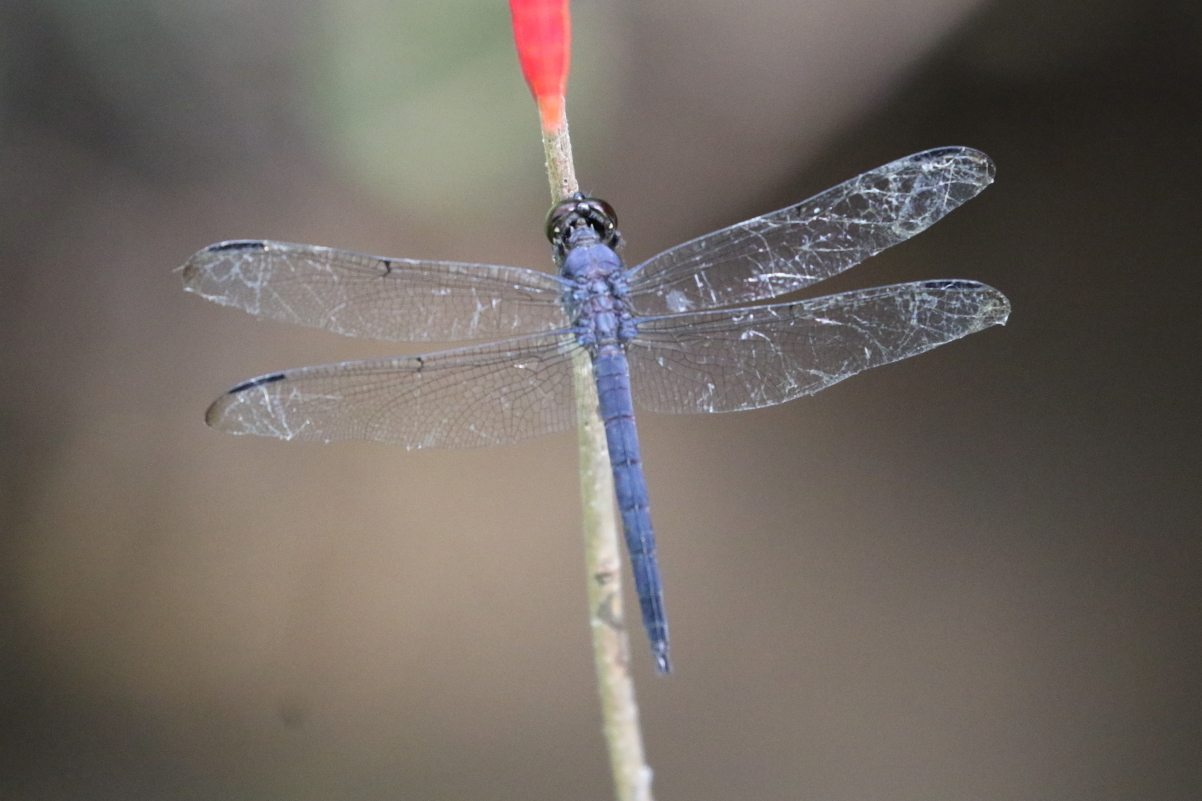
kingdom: Animalia
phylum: Arthropoda
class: Insecta
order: Odonata
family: Libellulidae
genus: Libellula
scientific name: Libellula incesta
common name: Slaty skimmer
